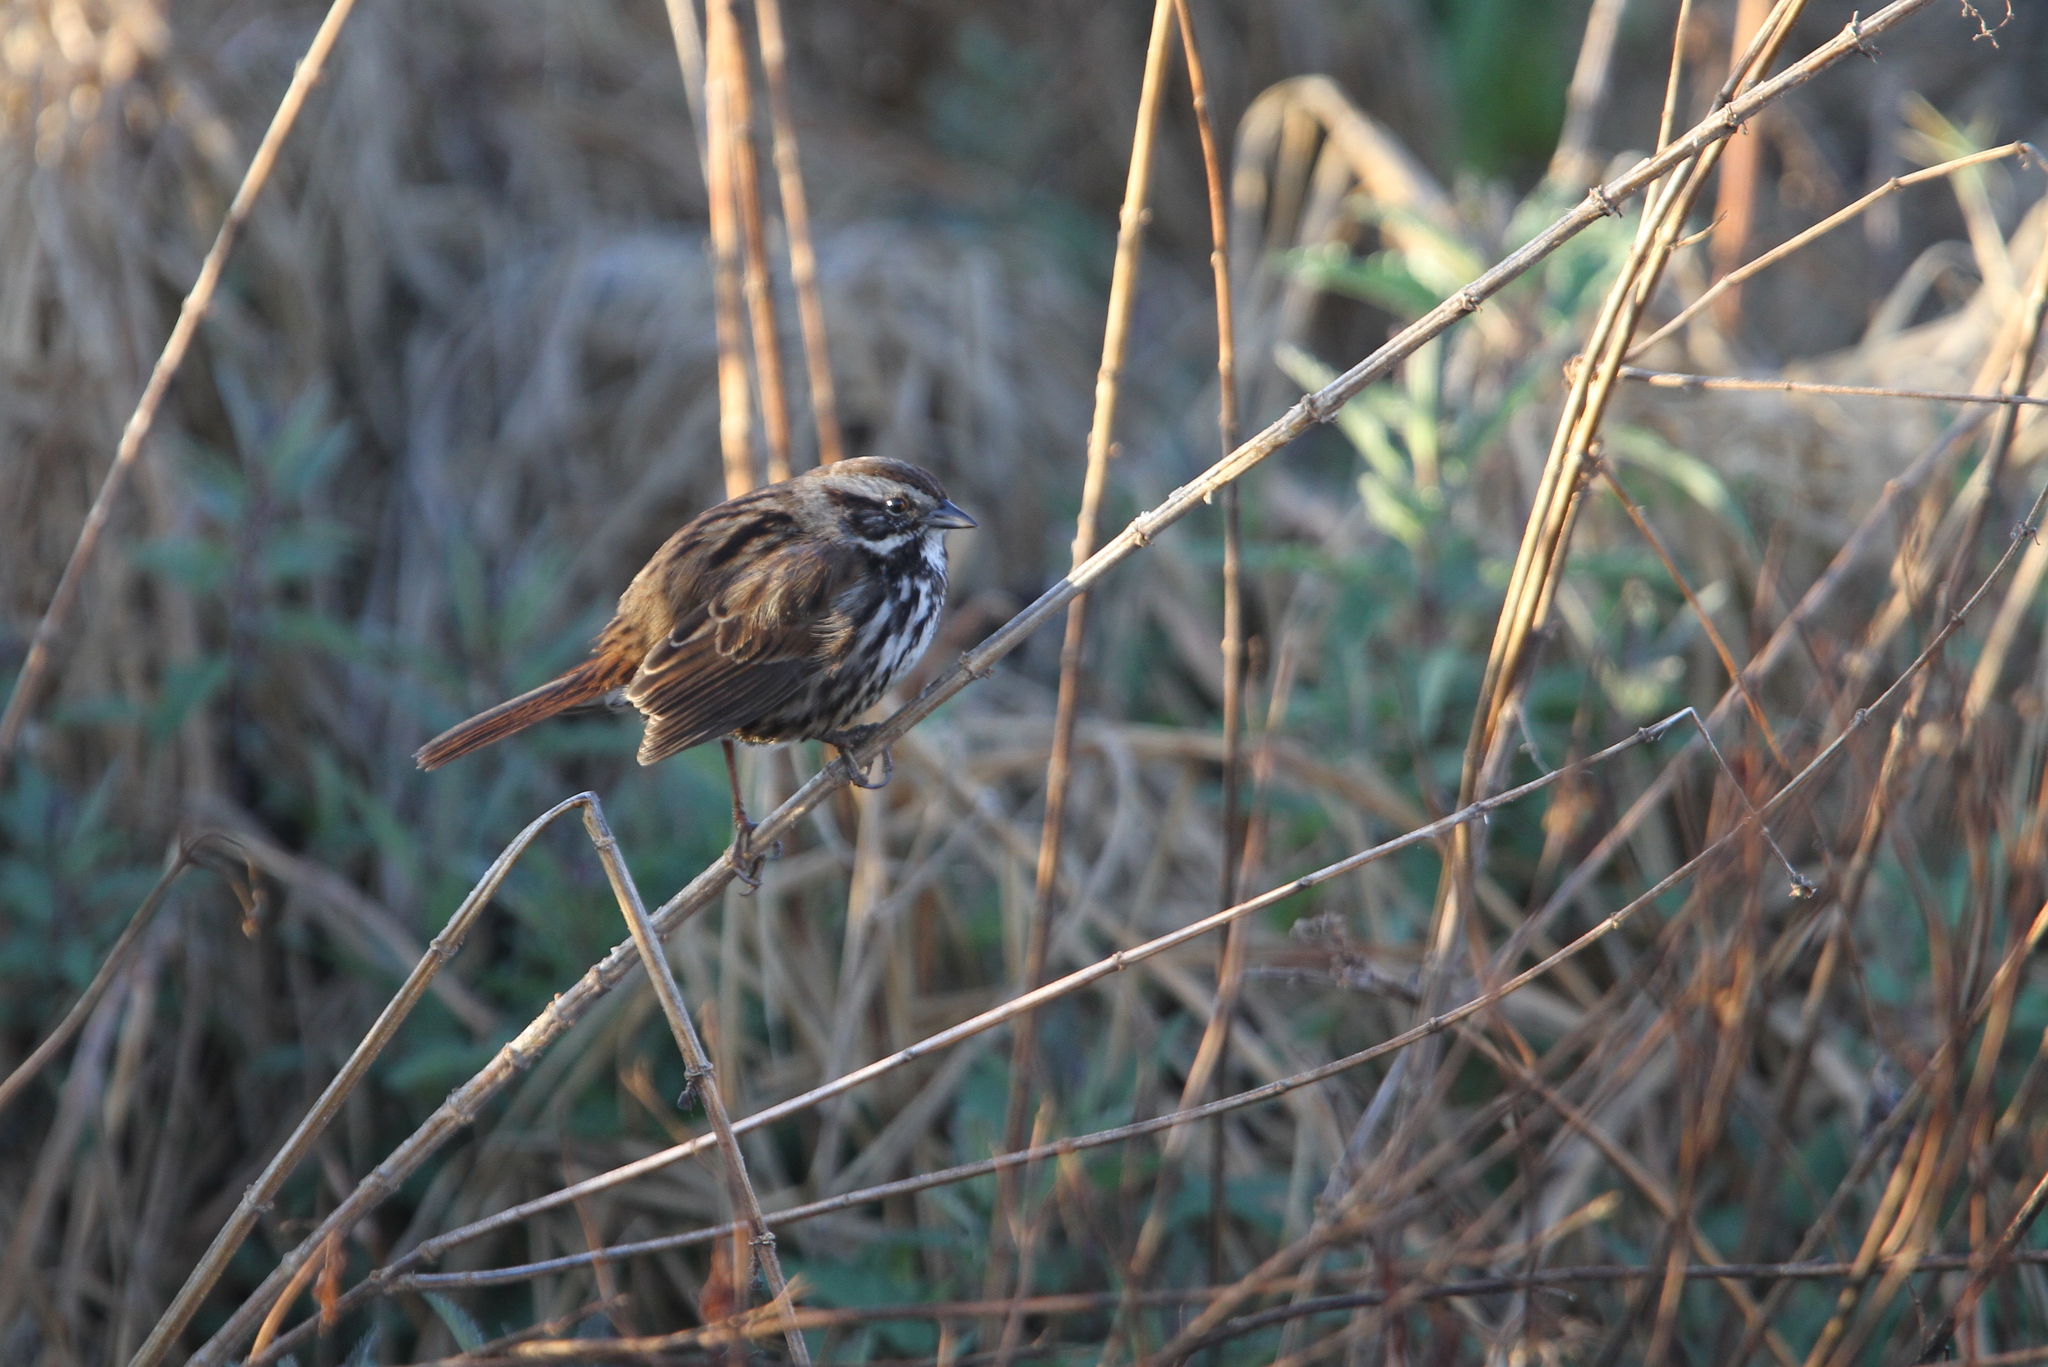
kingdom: Animalia
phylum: Chordata
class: Aves
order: Passeriformes
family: Passerellidae
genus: Melospiza
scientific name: Melospiza melodia
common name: Song sparrow
